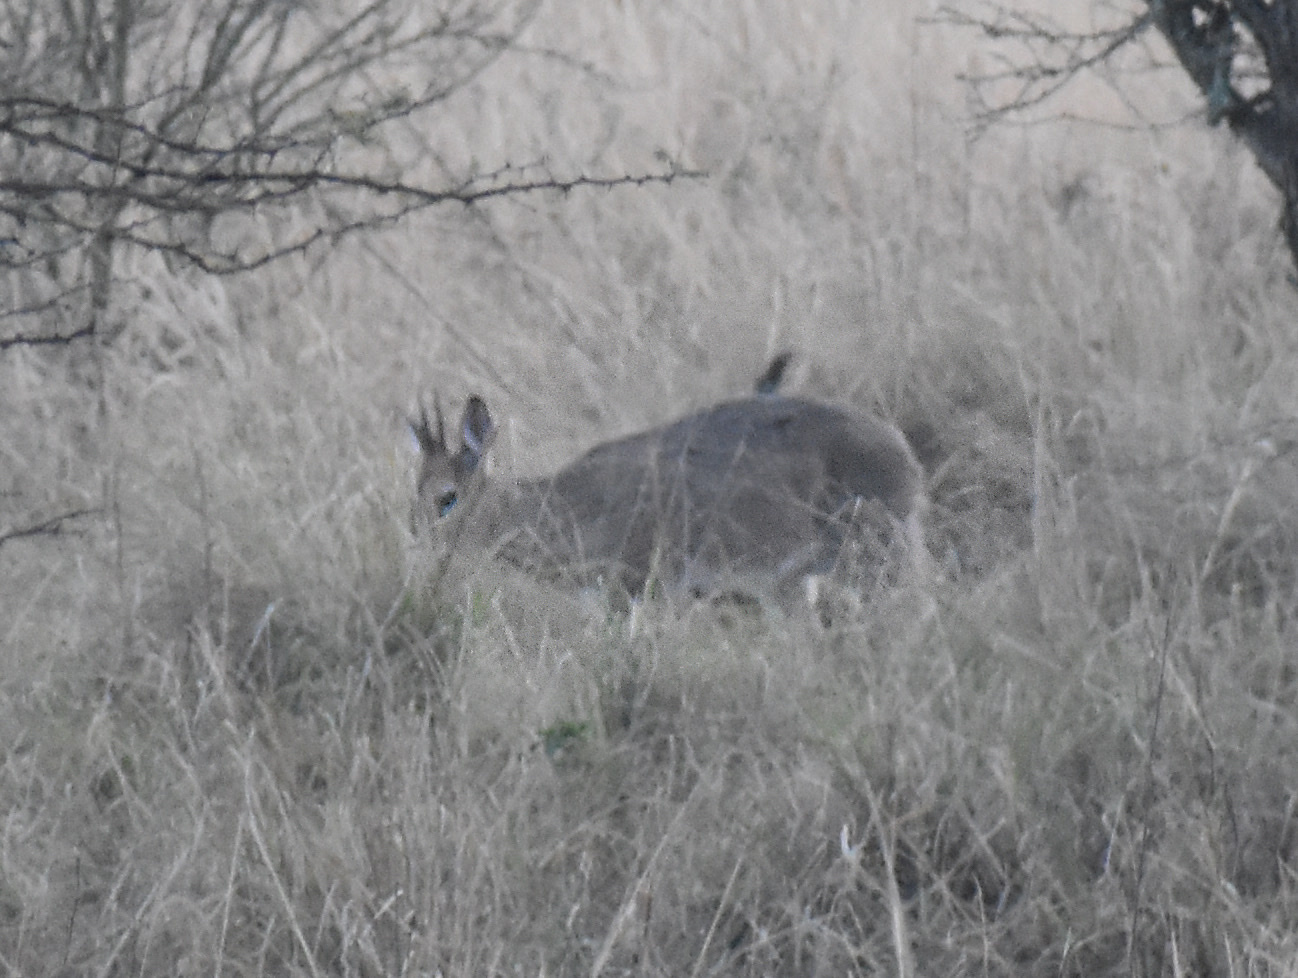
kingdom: Animalia
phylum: Chordata
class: Mammalia
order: Artiodactyla
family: Bovidae
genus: Sylvicapra
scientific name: Sylvicapra grimmia
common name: Bush duiker
